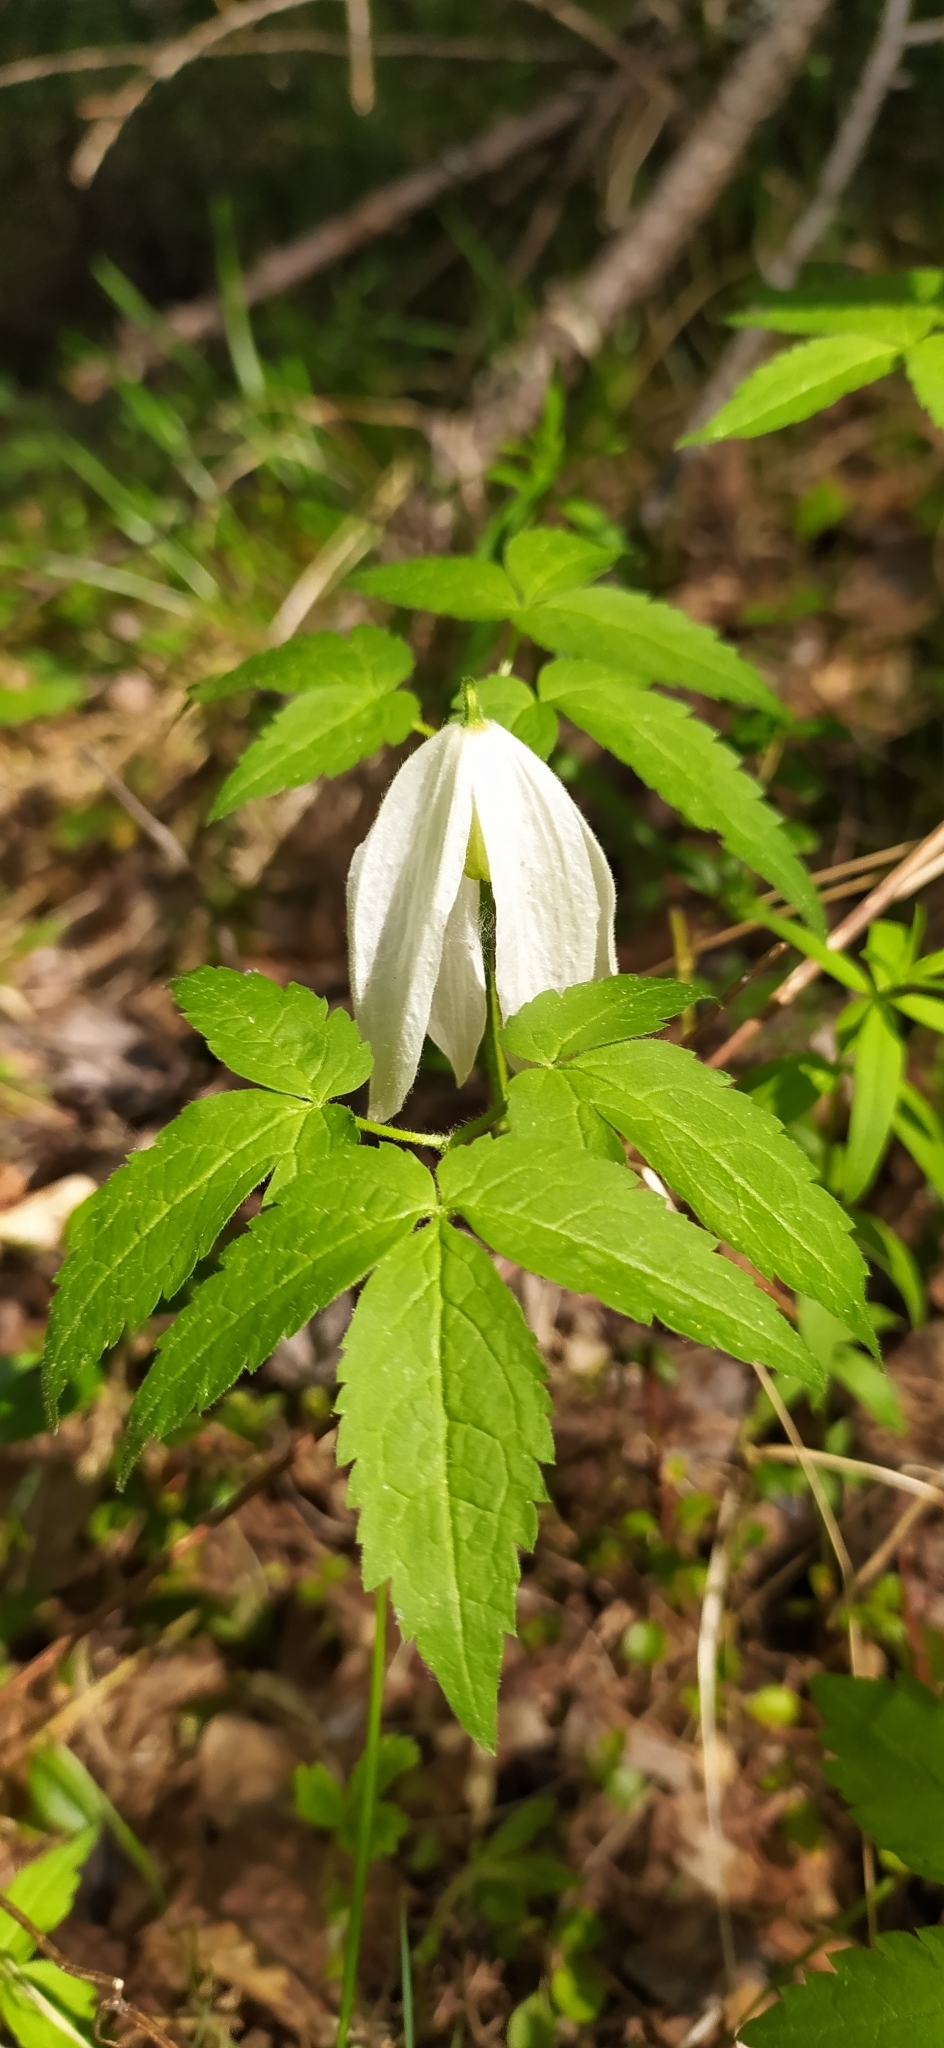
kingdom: Plantae
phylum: Tracheophyta
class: Magnoliopsida
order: Ranunculales
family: Ranunculaceae
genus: Clematis
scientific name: Clematis sibirica
